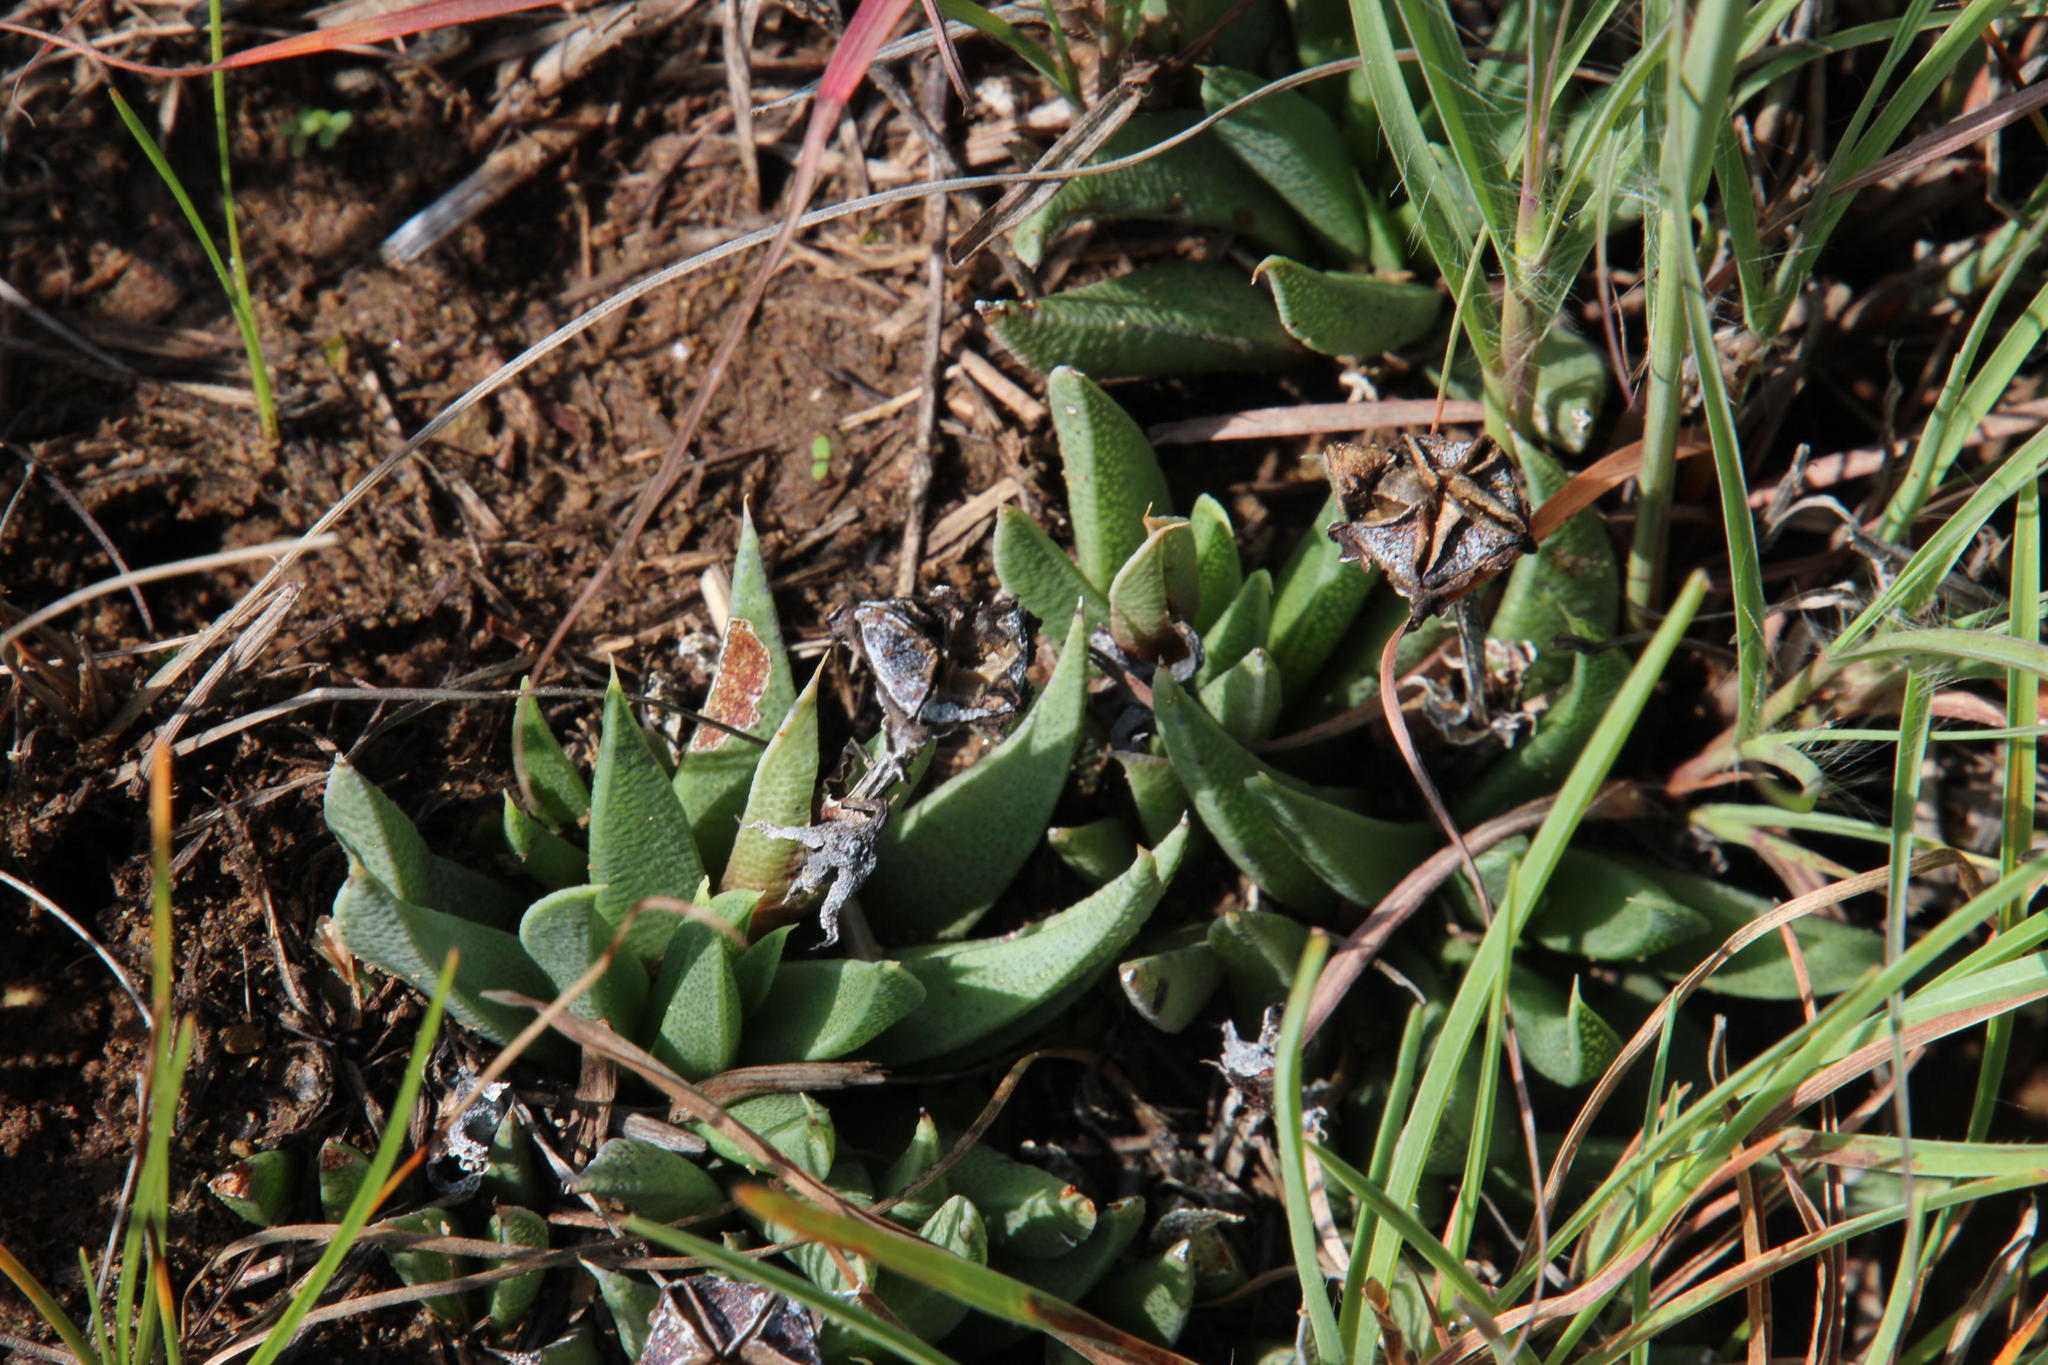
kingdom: Plantae
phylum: Tracheophyta
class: Magnoliopsida
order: Caryophyllales
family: Aizoaceae
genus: Bergeranthus
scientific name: Bergeranthus concavus
